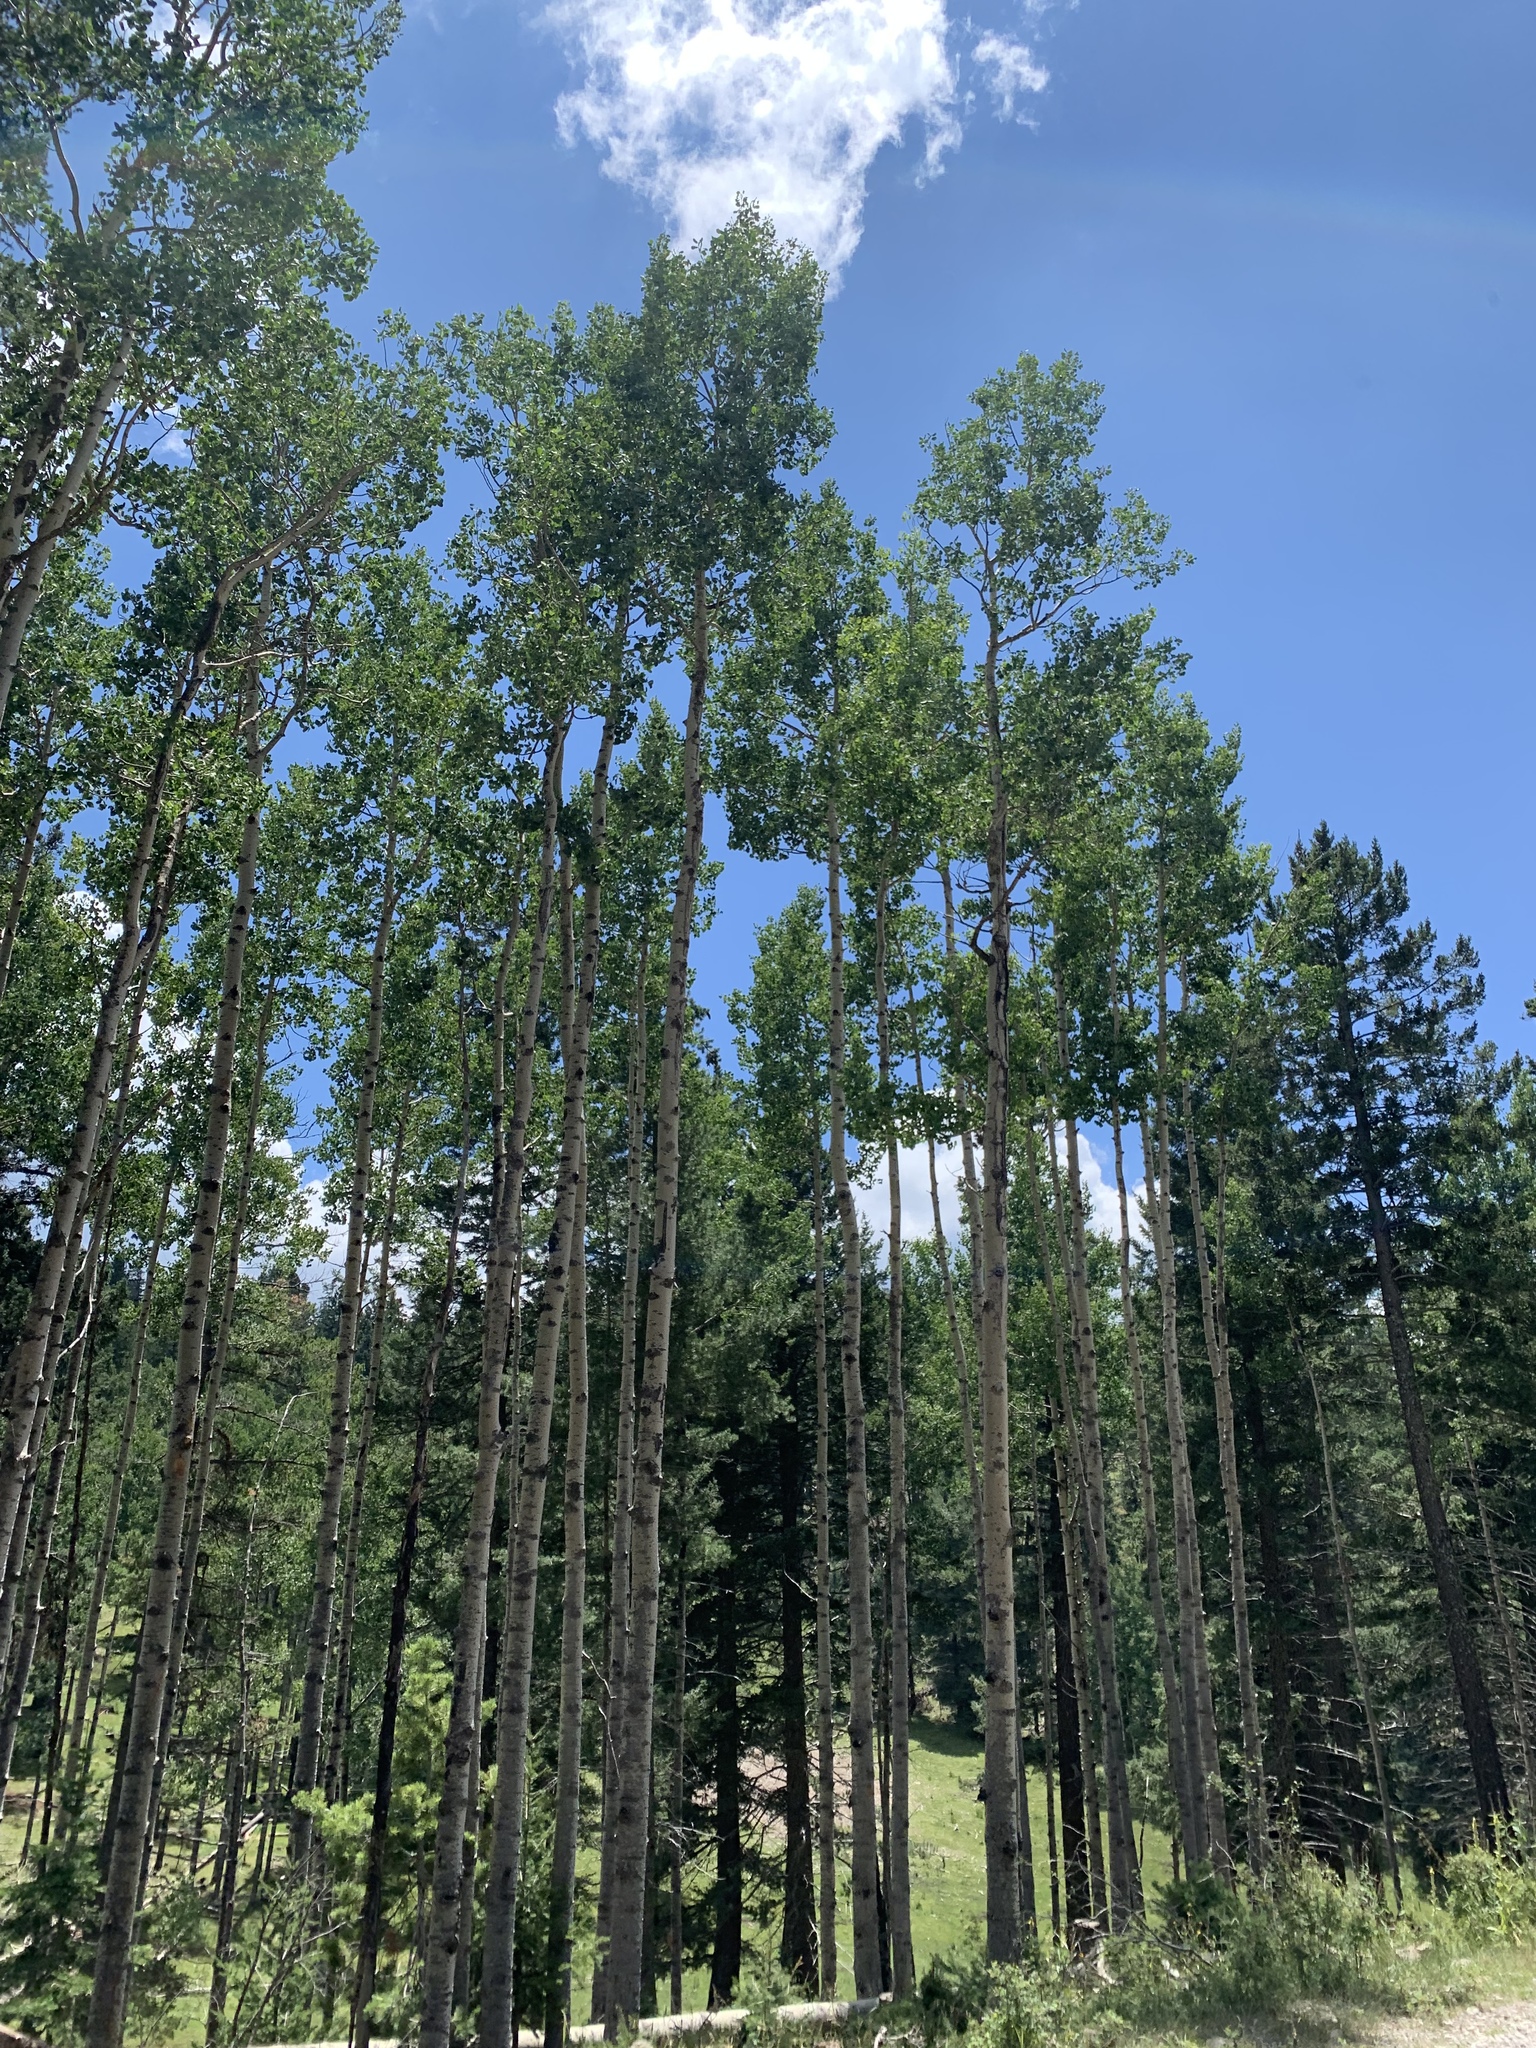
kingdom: Plantae
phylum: Tracheophyta
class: Magnoliopsida
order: Malpighiales
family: Salicaceae
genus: Populus
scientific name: Populus tremuloides
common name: Quaking aspen
